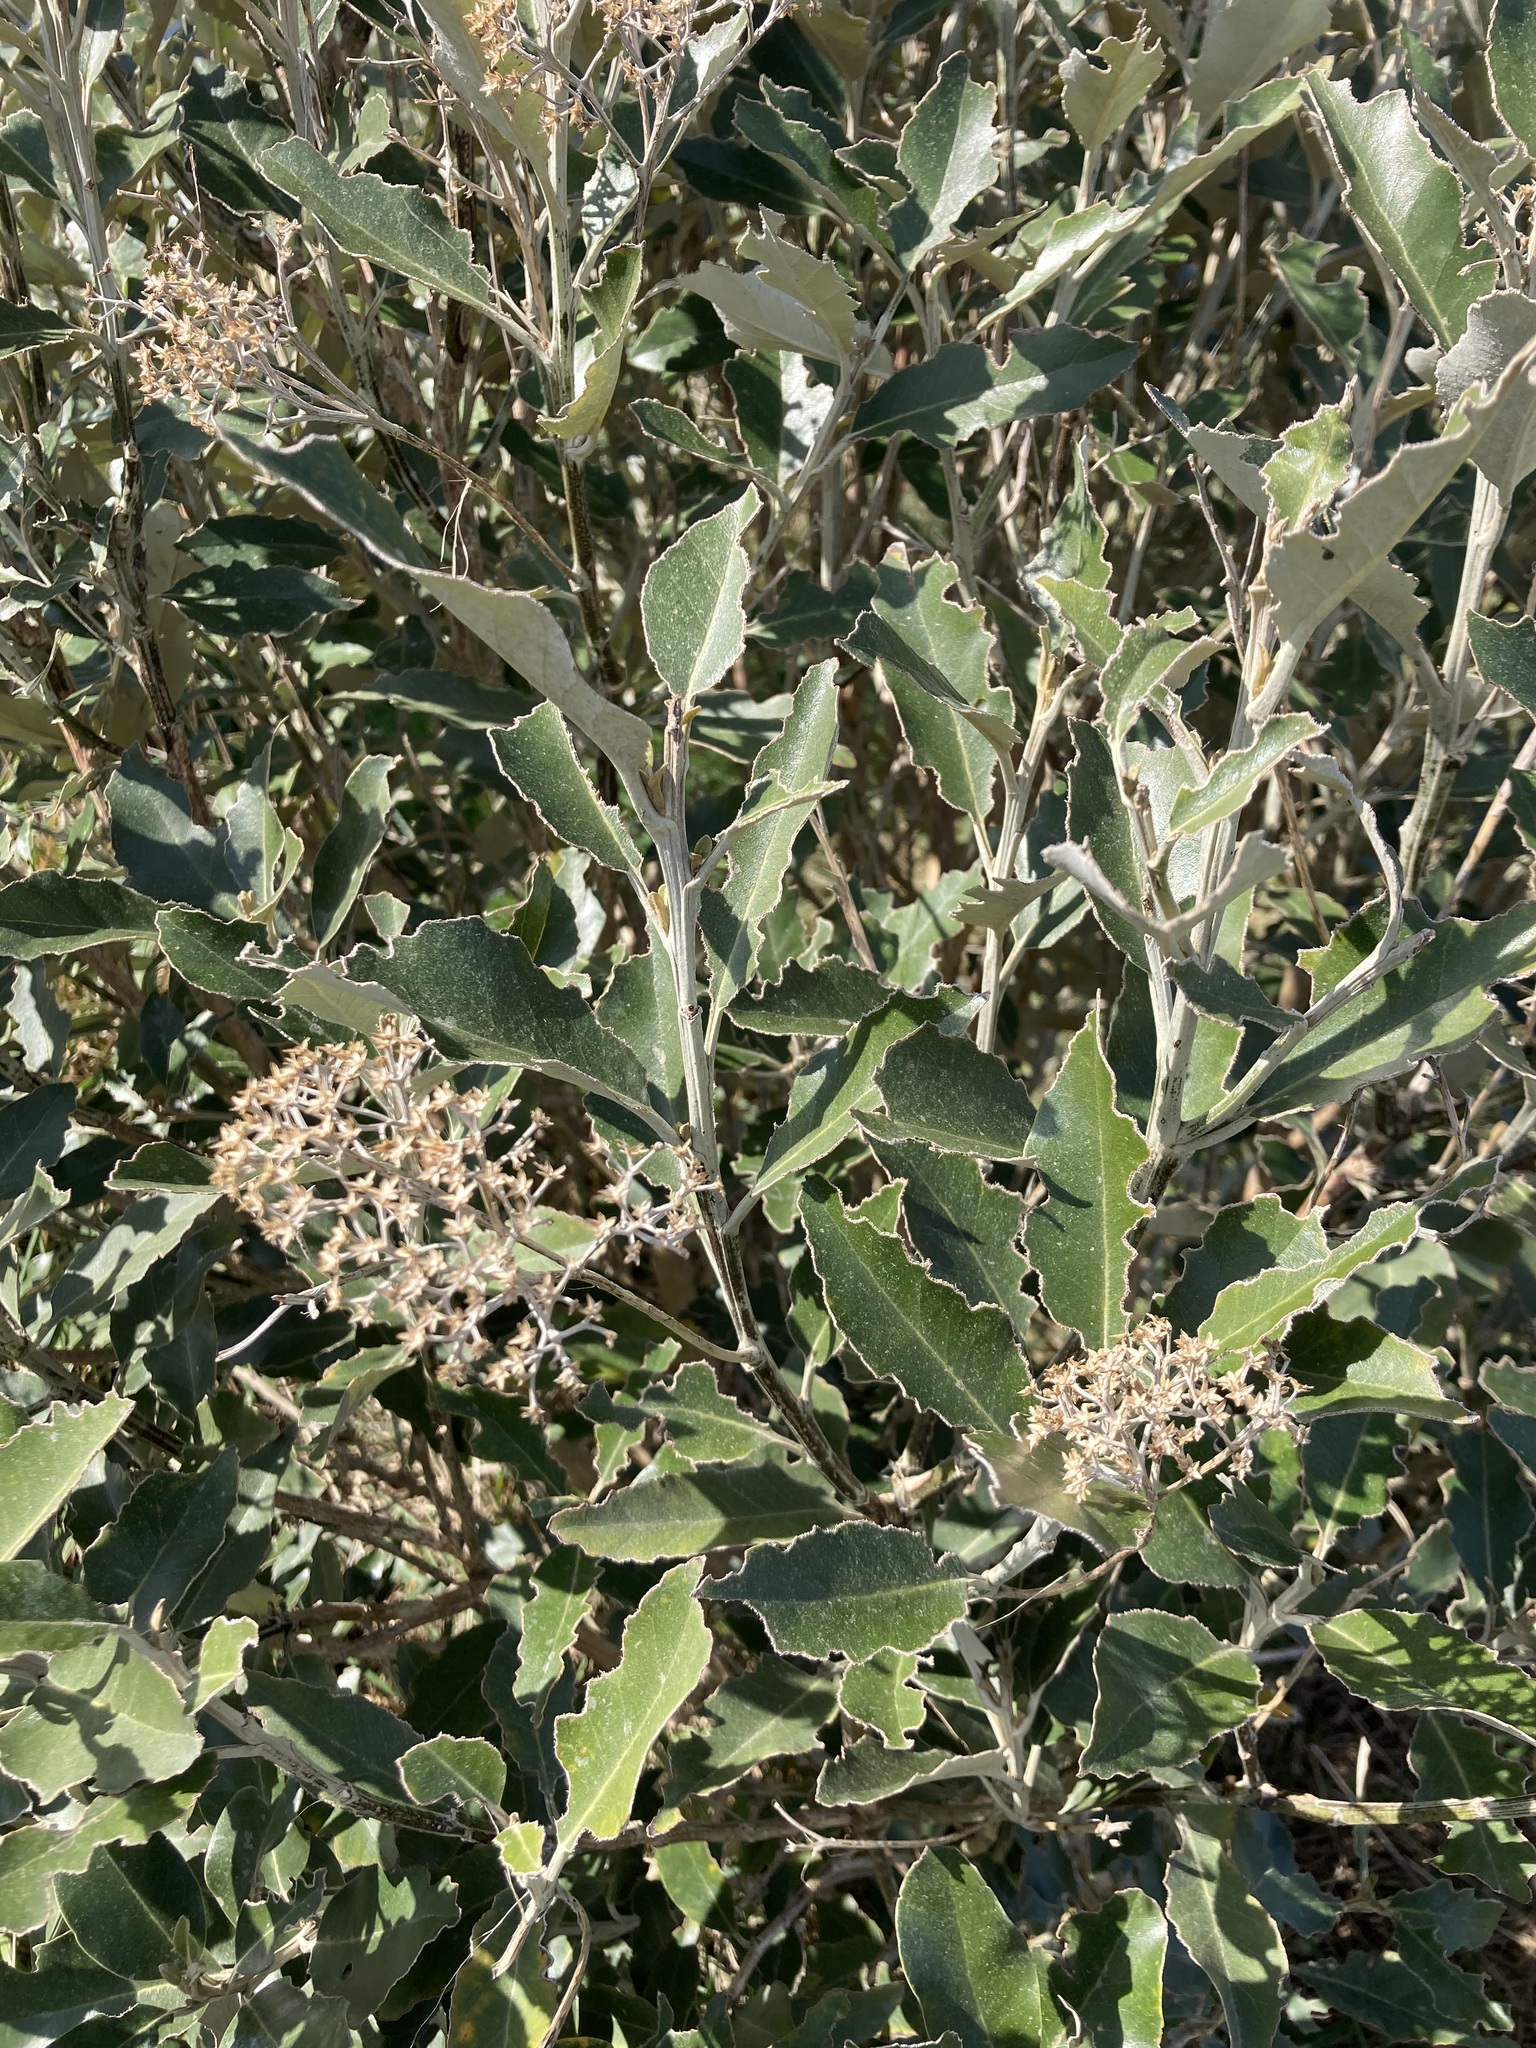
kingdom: Plantae
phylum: Tracheophyta
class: Magnoliopsida
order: Asterales
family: Asteraceae
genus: Olearia
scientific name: Olearia avicenniifolia
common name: Mangrove-leaf daisybush
